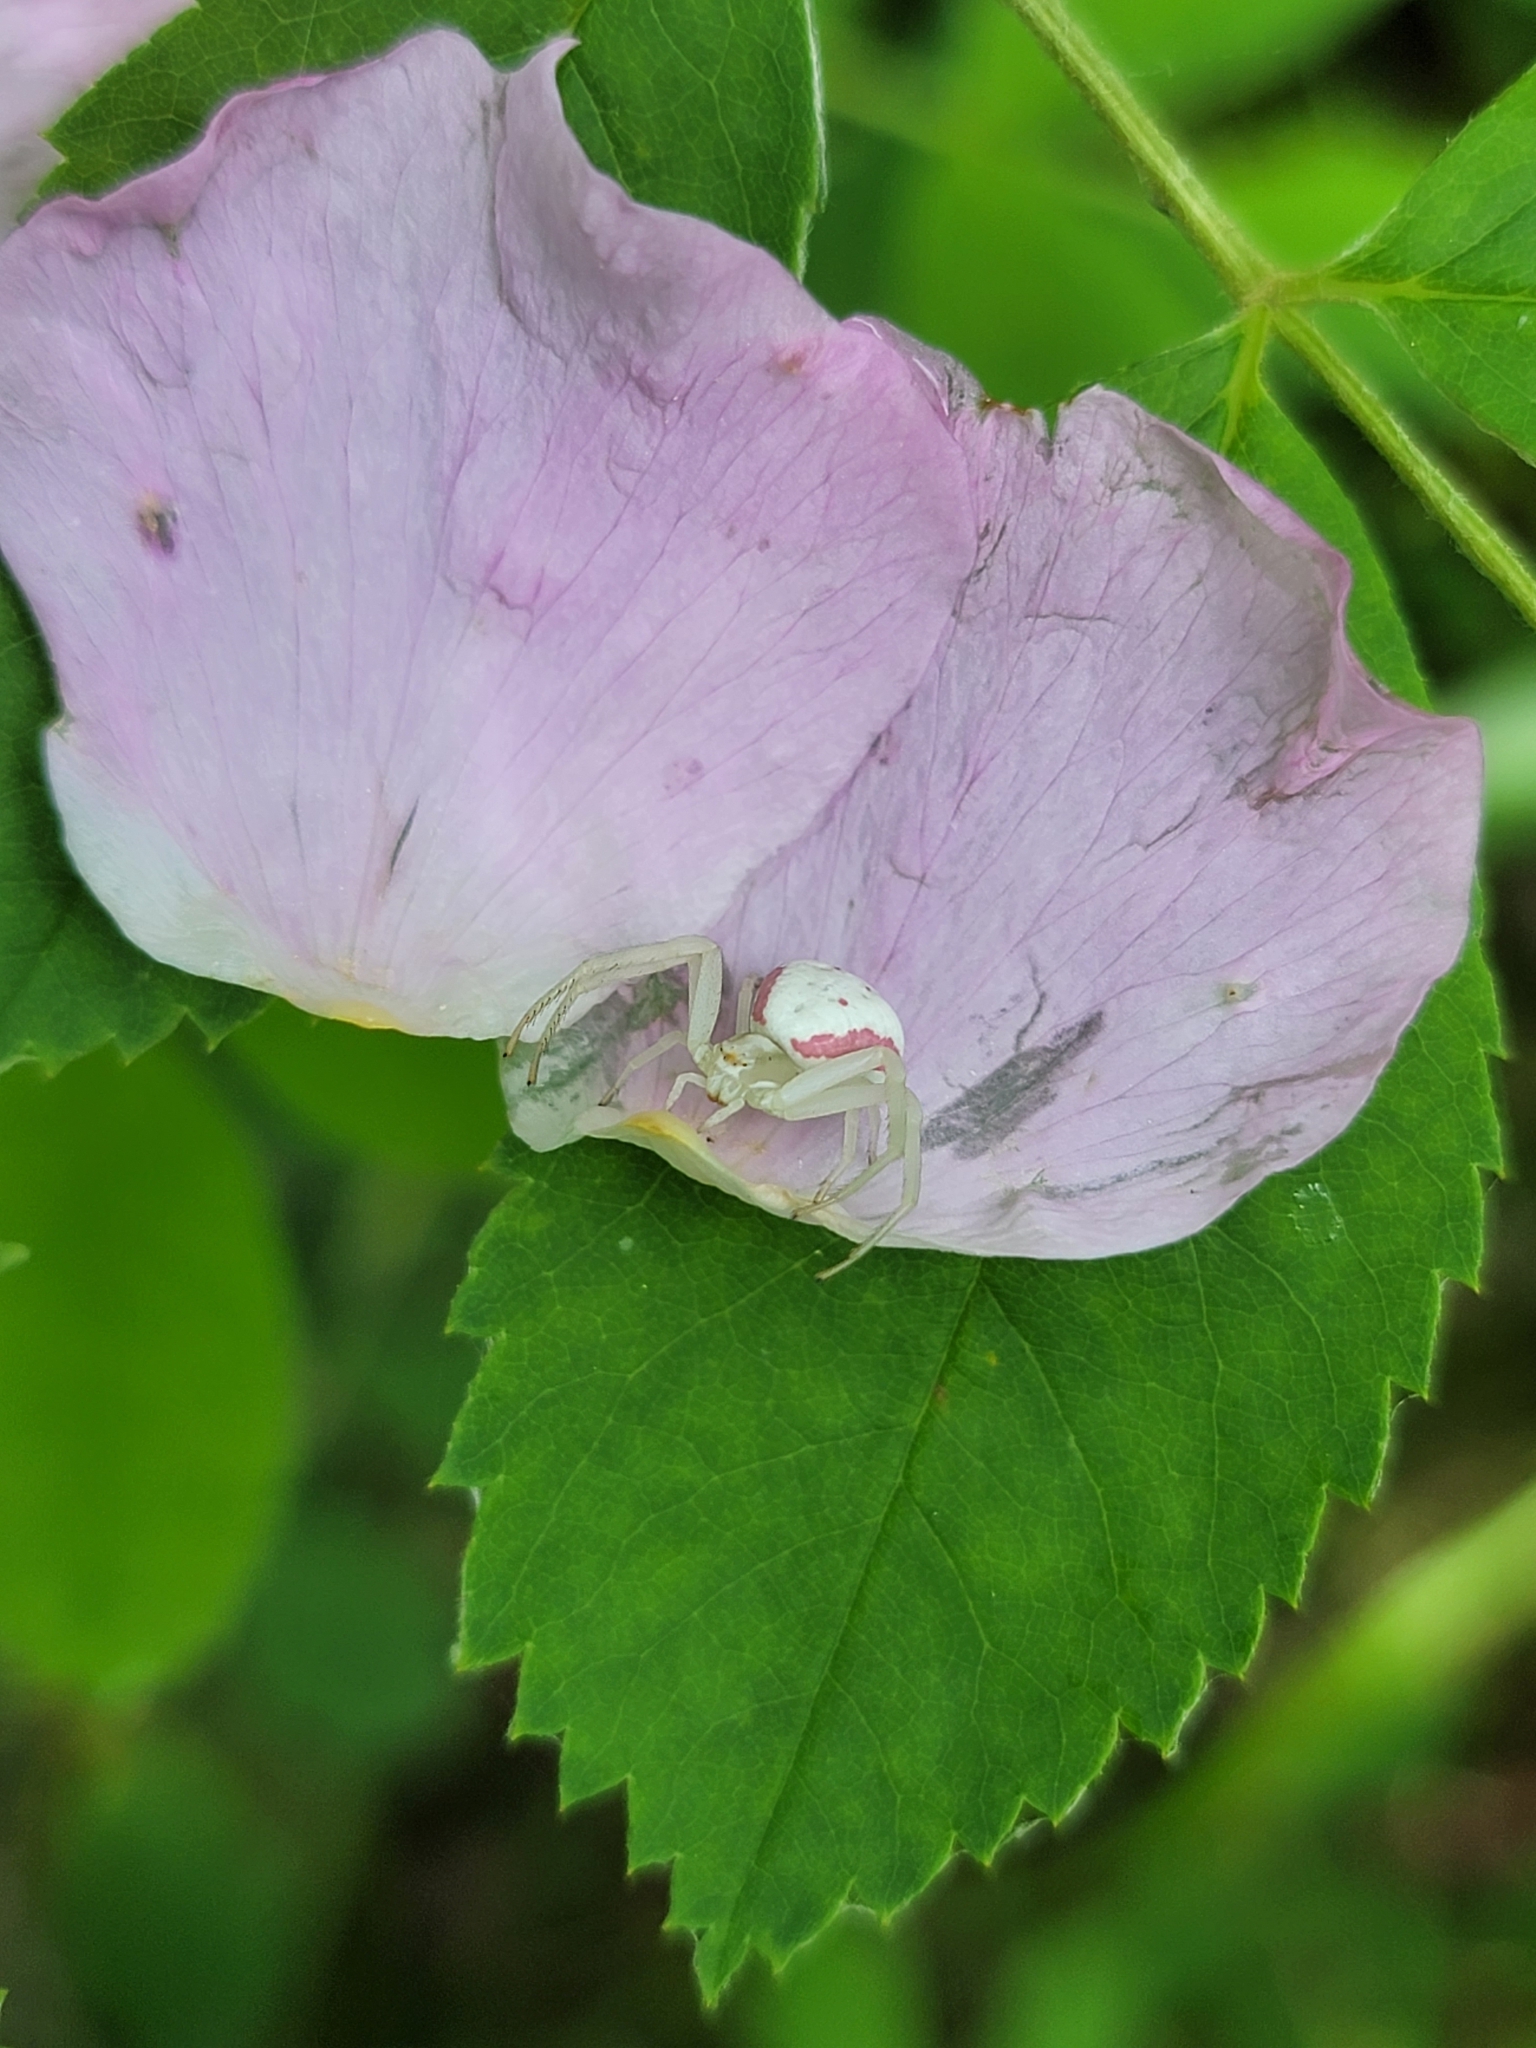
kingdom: Animalia
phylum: Arthropoda
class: Arachnida
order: Araneae
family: Thomisidae
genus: Misumena
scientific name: Misumena vatia
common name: Goldenrod crab spider
